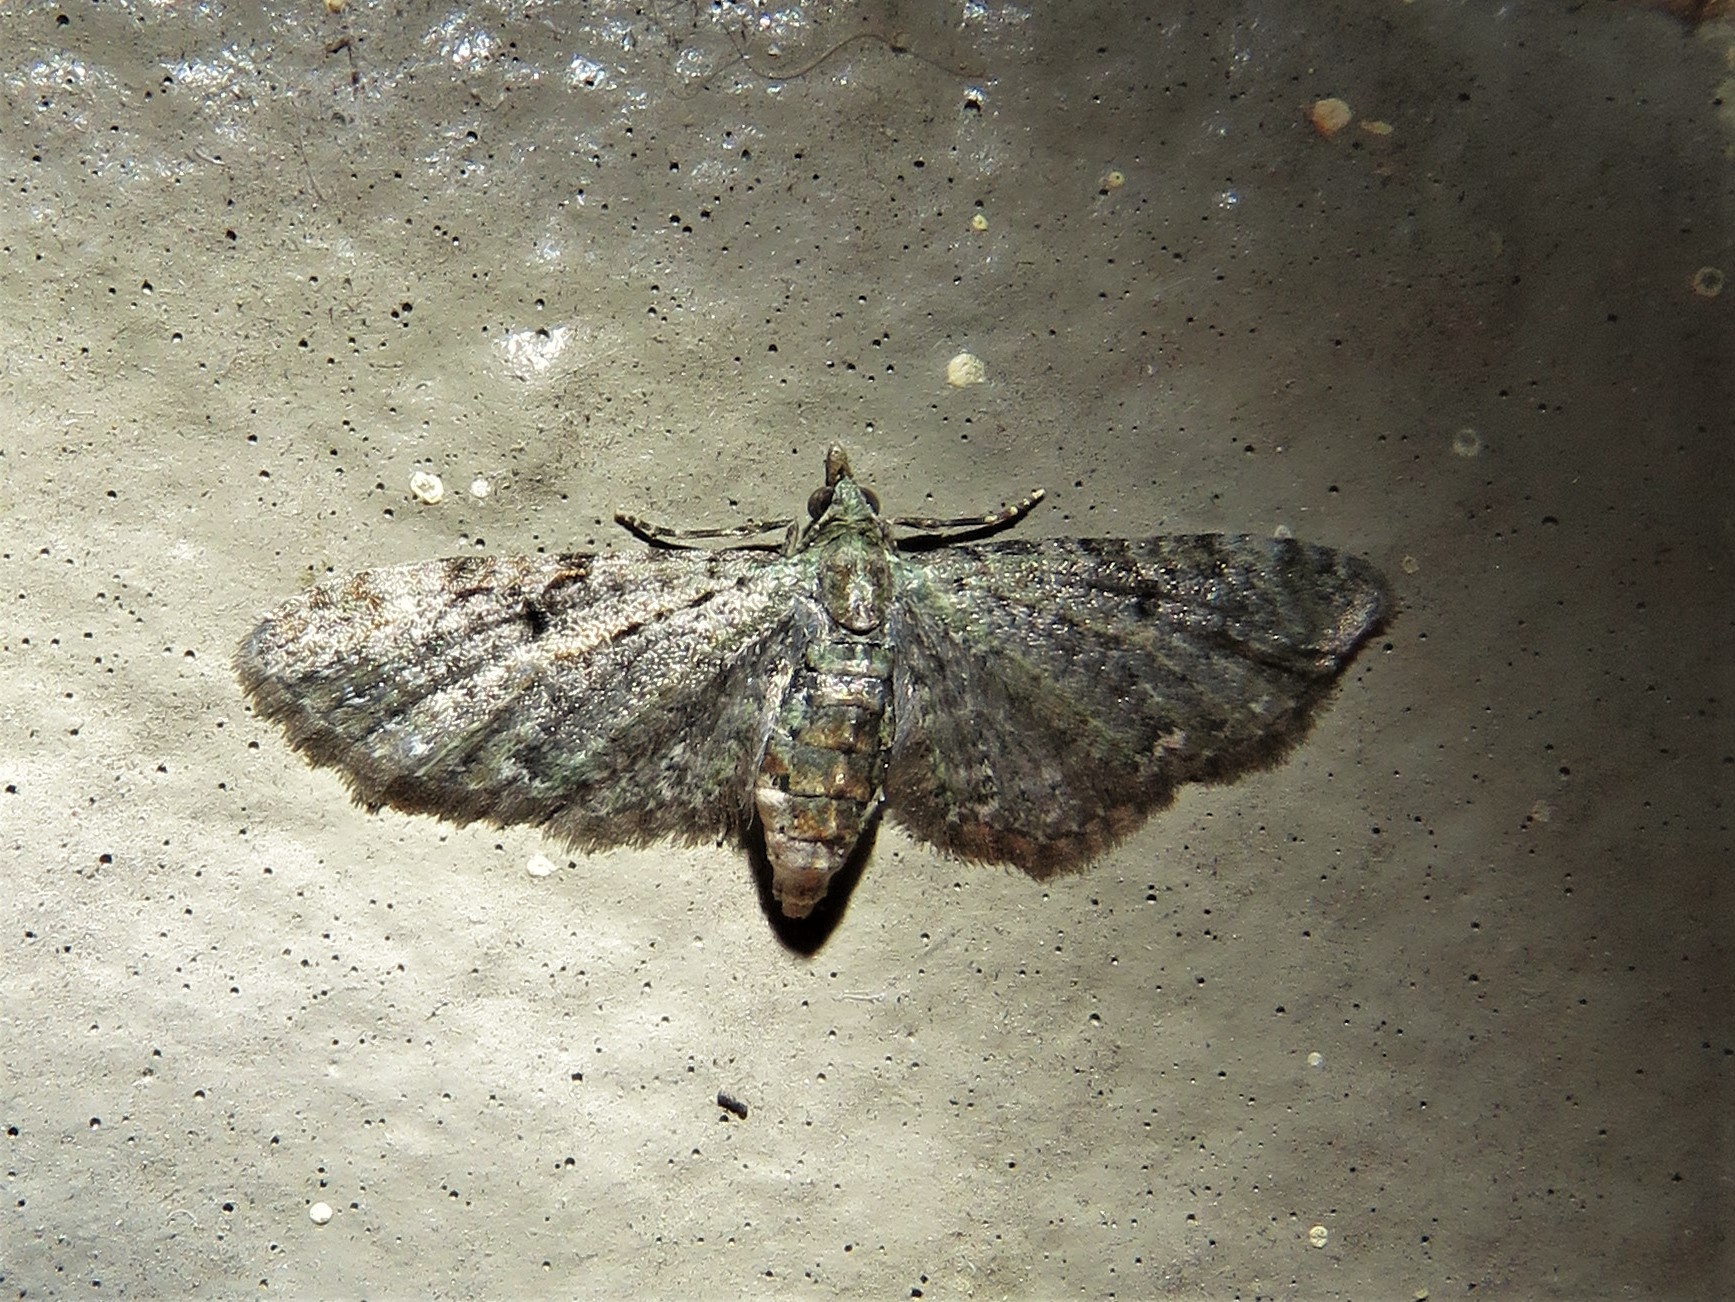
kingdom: Animalia
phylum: Arthropoda
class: Insecta
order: Lepidoptera
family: Geometridae
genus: Eupithecia
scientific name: Eupithecia miserulata
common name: Common eupithecia
